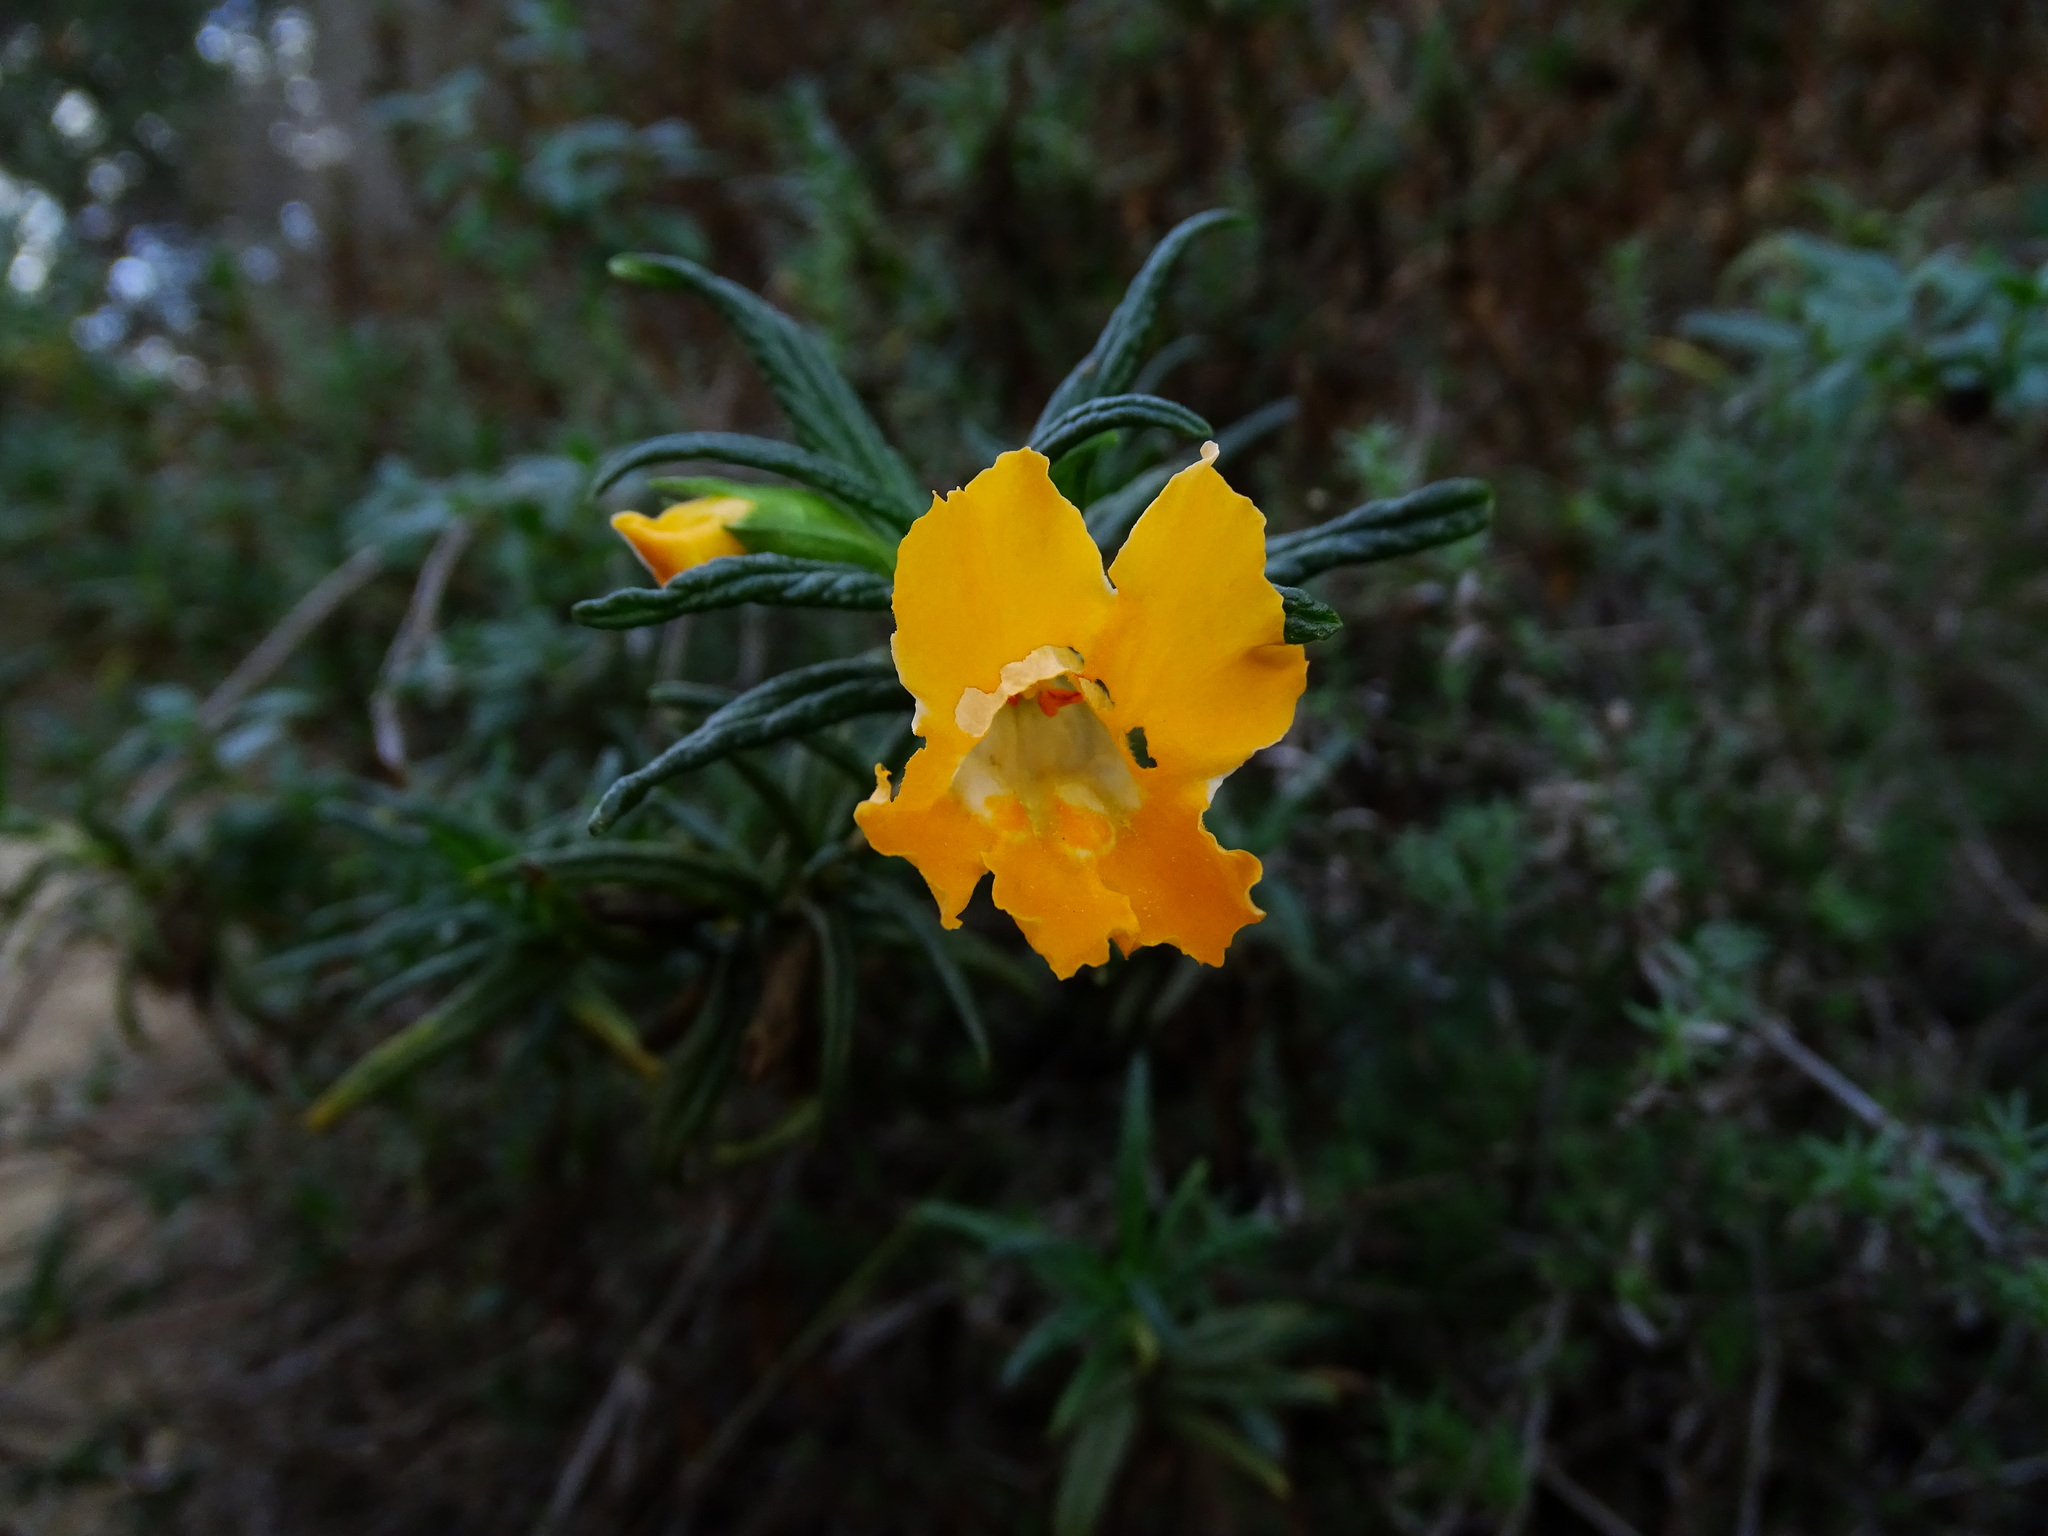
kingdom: Plantae
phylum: Tracheophyta
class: Magnoliopsida
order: Lamiales
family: Phrymaceae
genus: Diplacus
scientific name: Diplacus longiflorus
